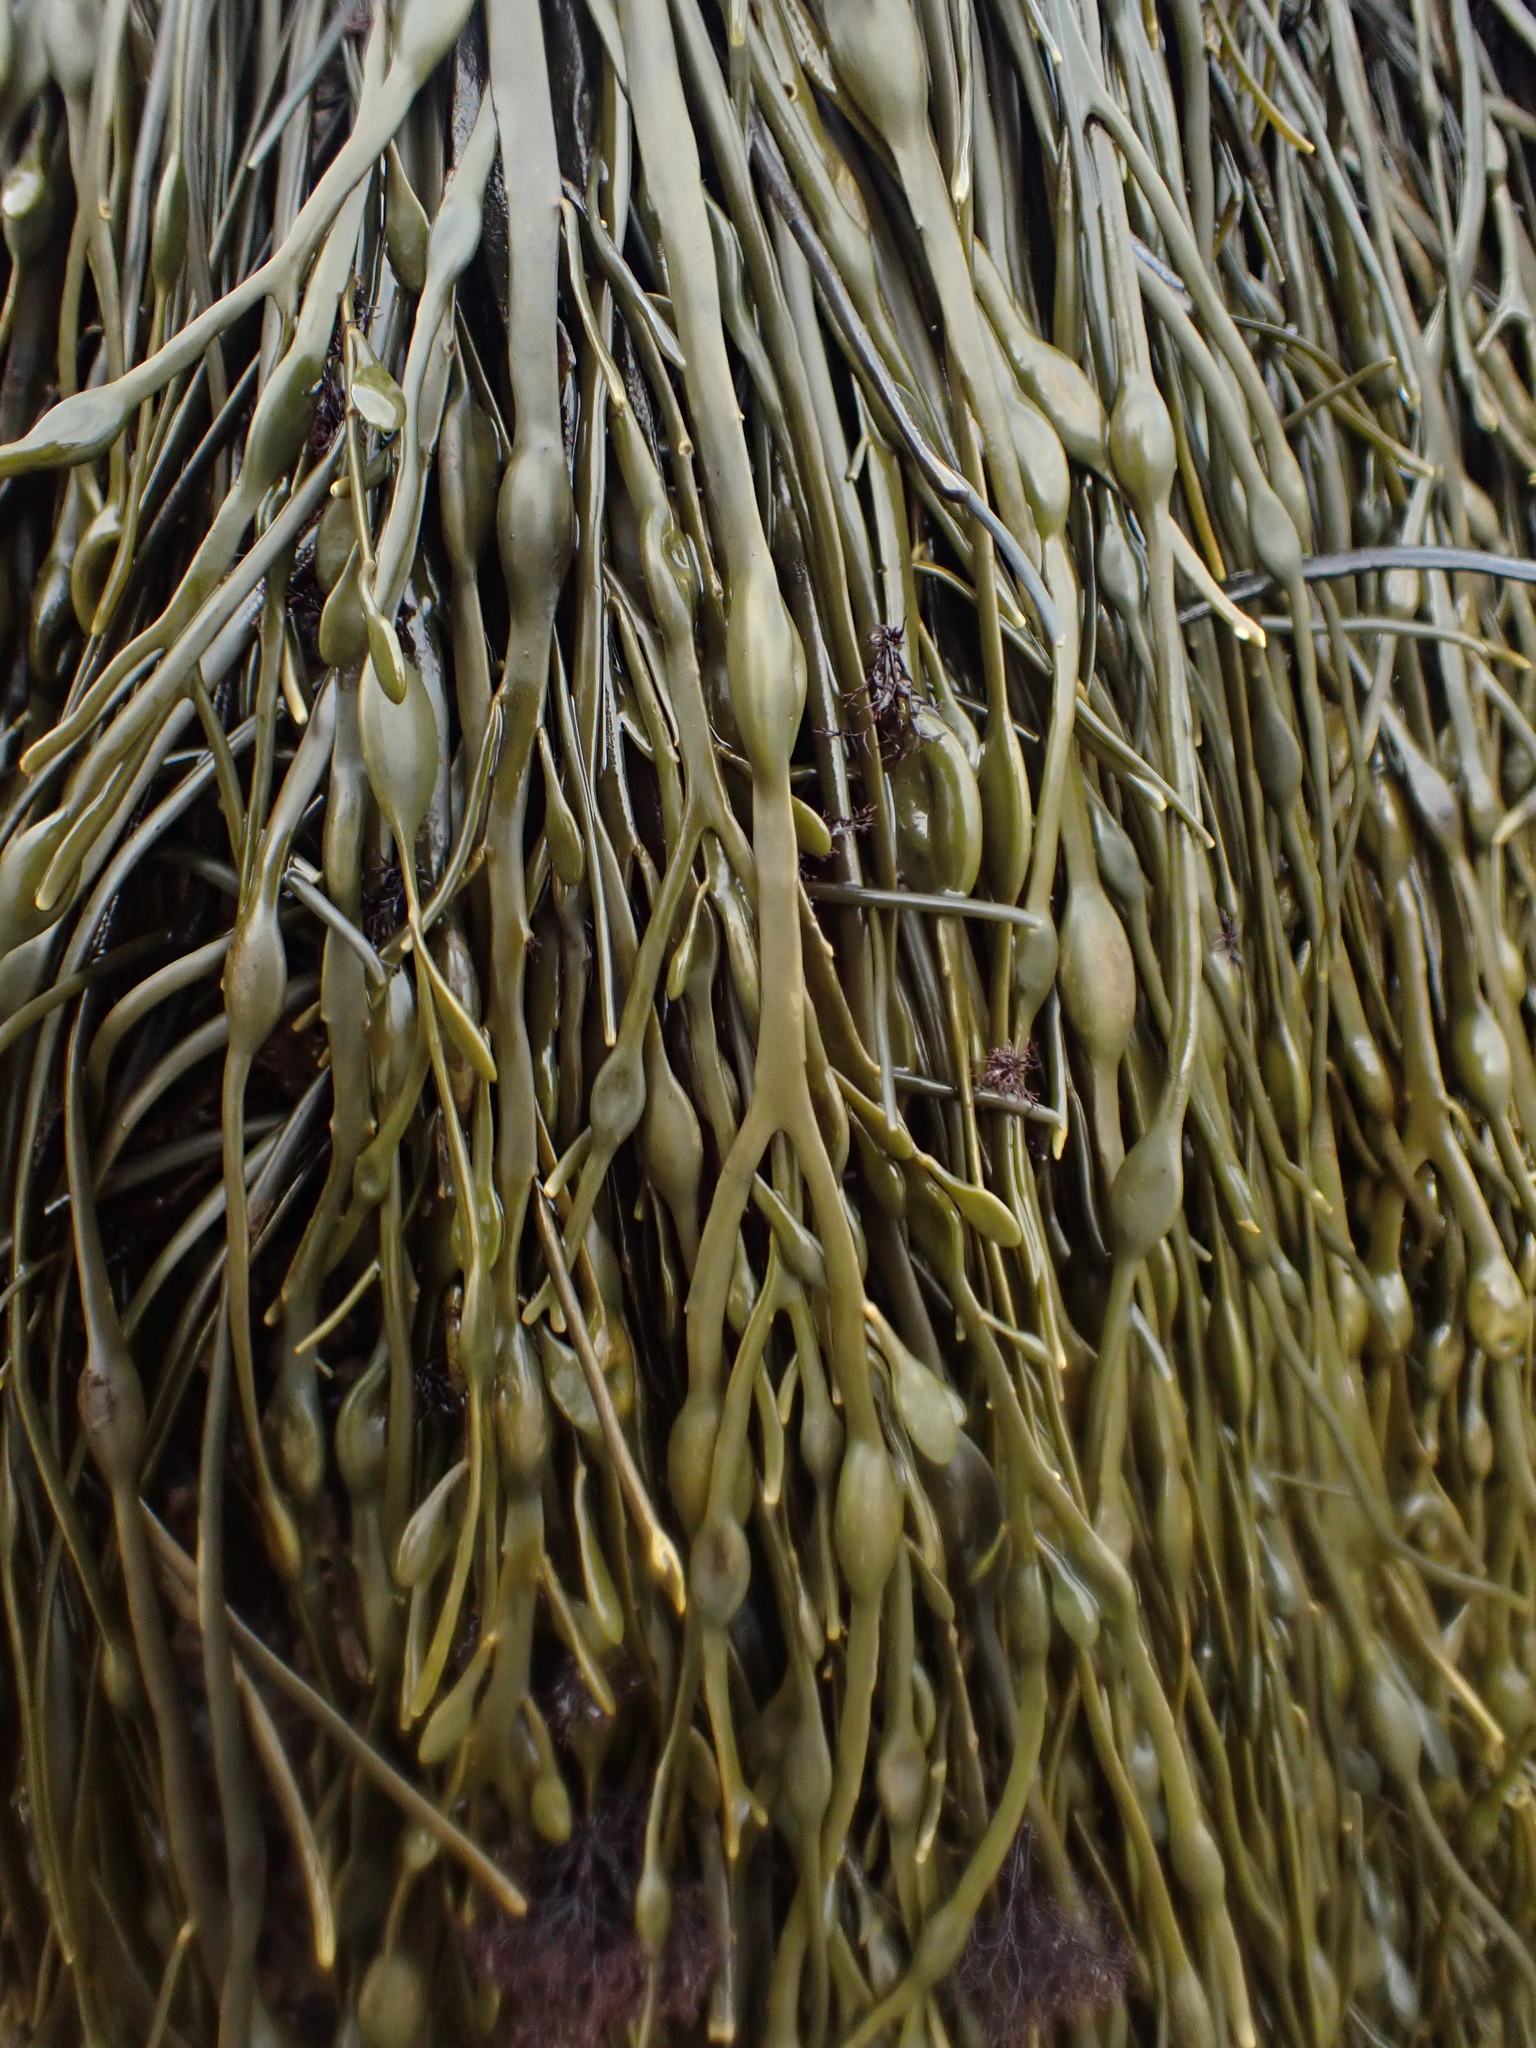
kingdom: Chromista
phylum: Ochrophyta
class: Phaeophyceae
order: Fucales
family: Fucaceae
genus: Ascophyllum
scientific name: Ascophyllum nodosum
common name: Knotted wrack
